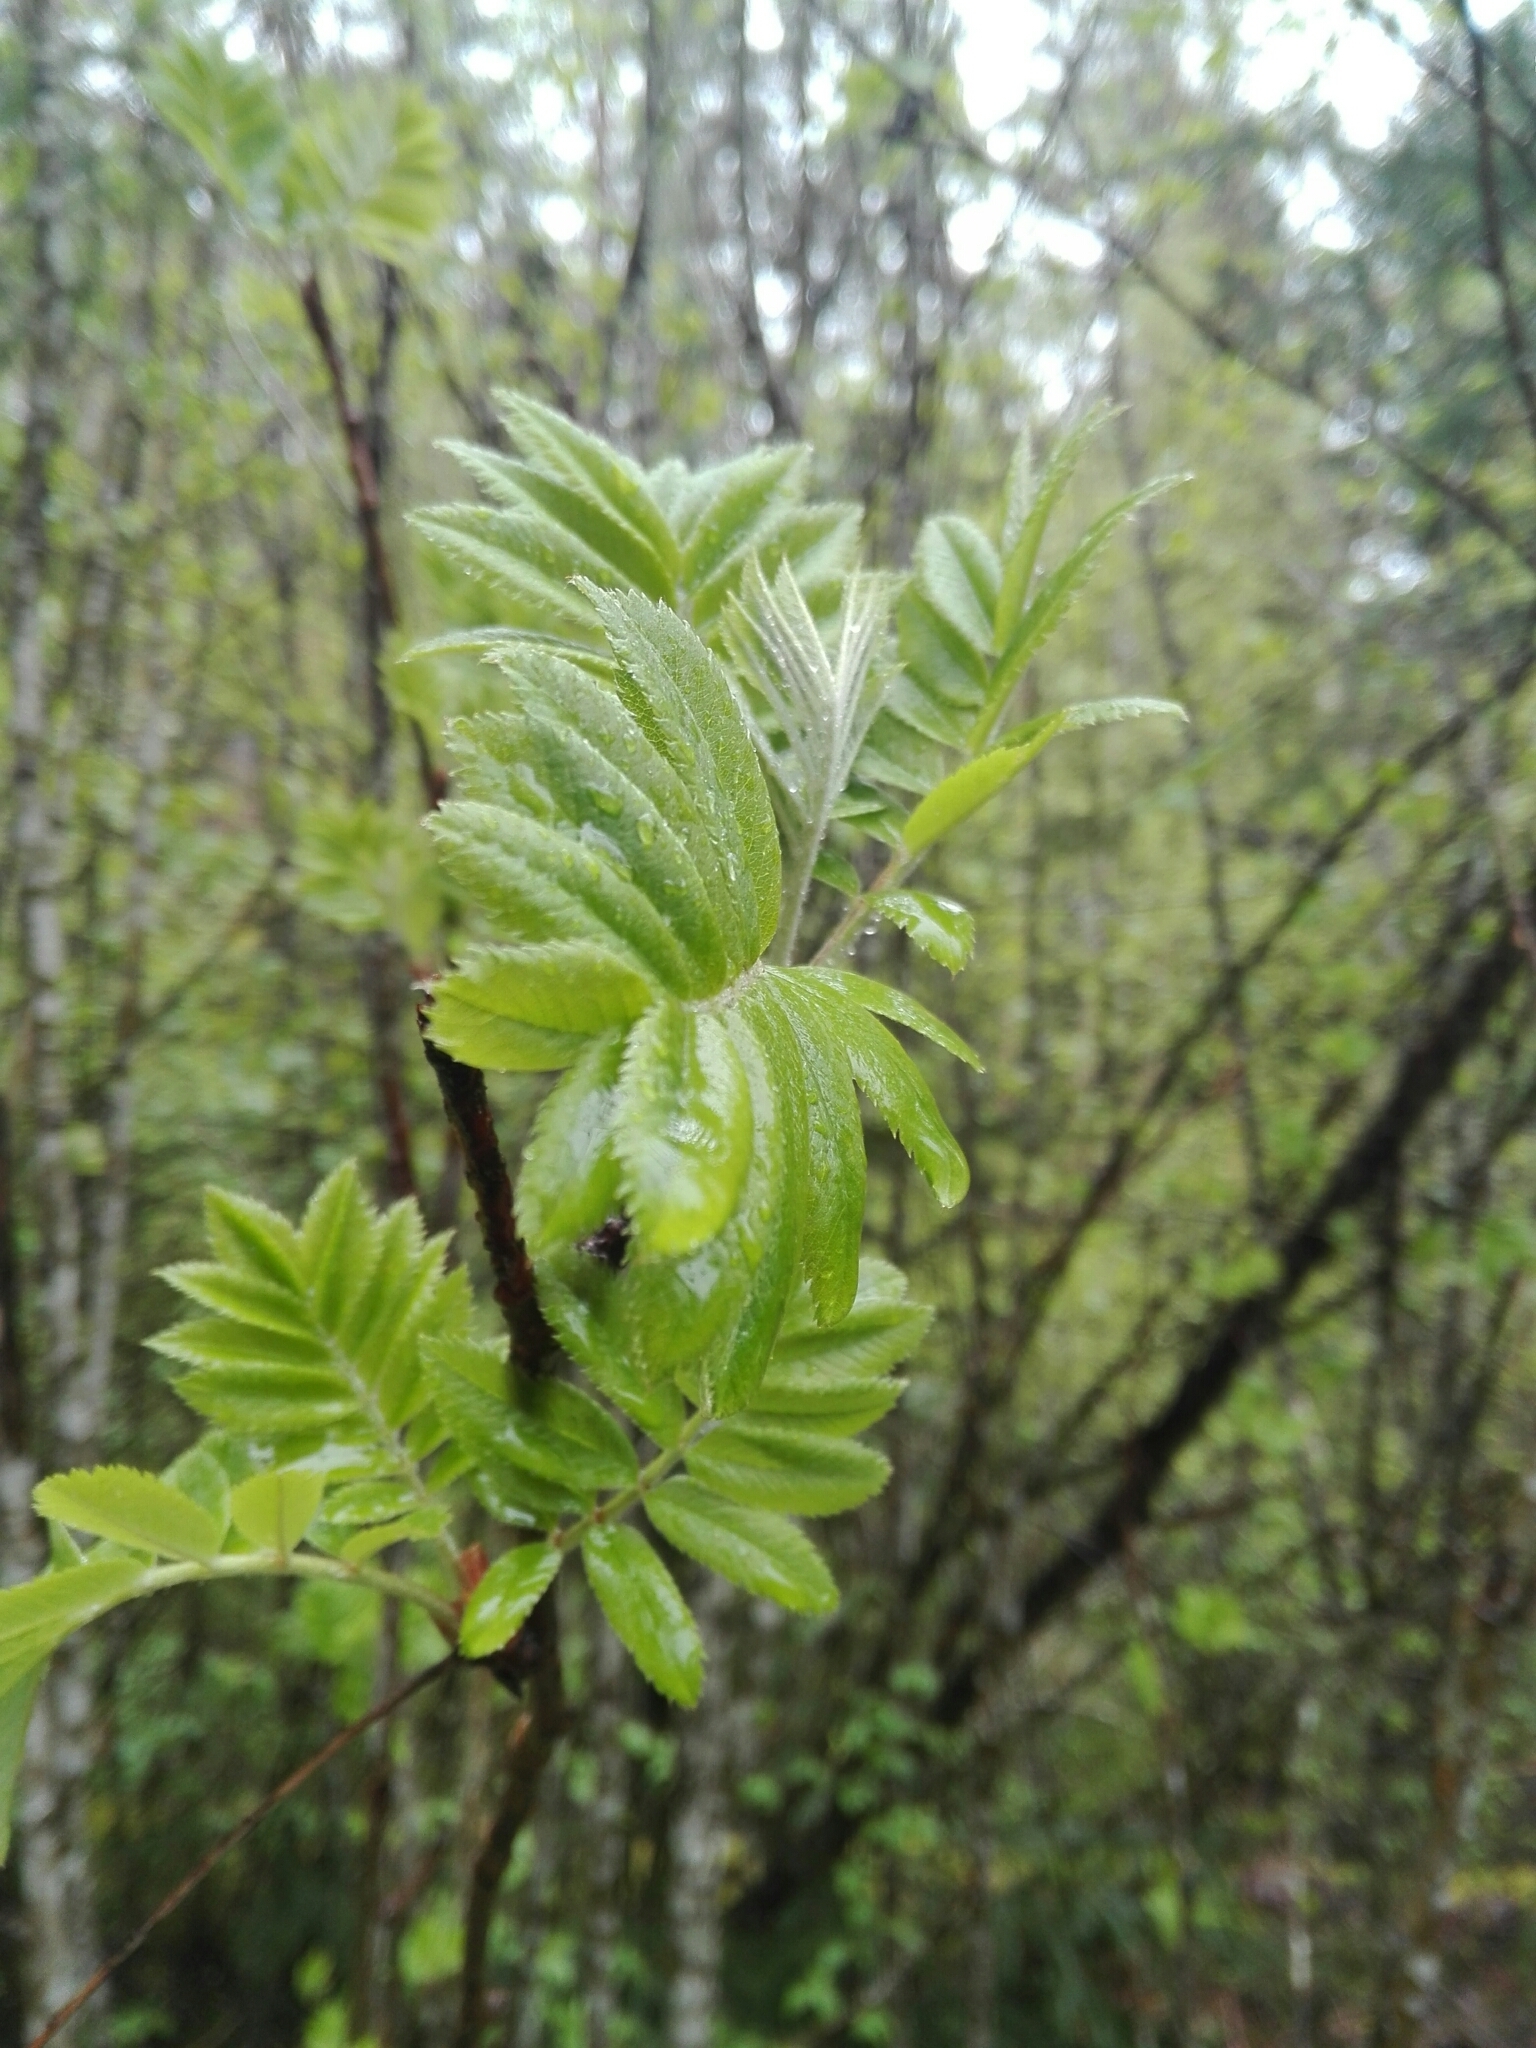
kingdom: Plantae
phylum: Tracheophyta
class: Magnoliopsida
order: Rosales
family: Rosaceae
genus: Sorbus
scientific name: Sorbus aucuparia
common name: Rowan
